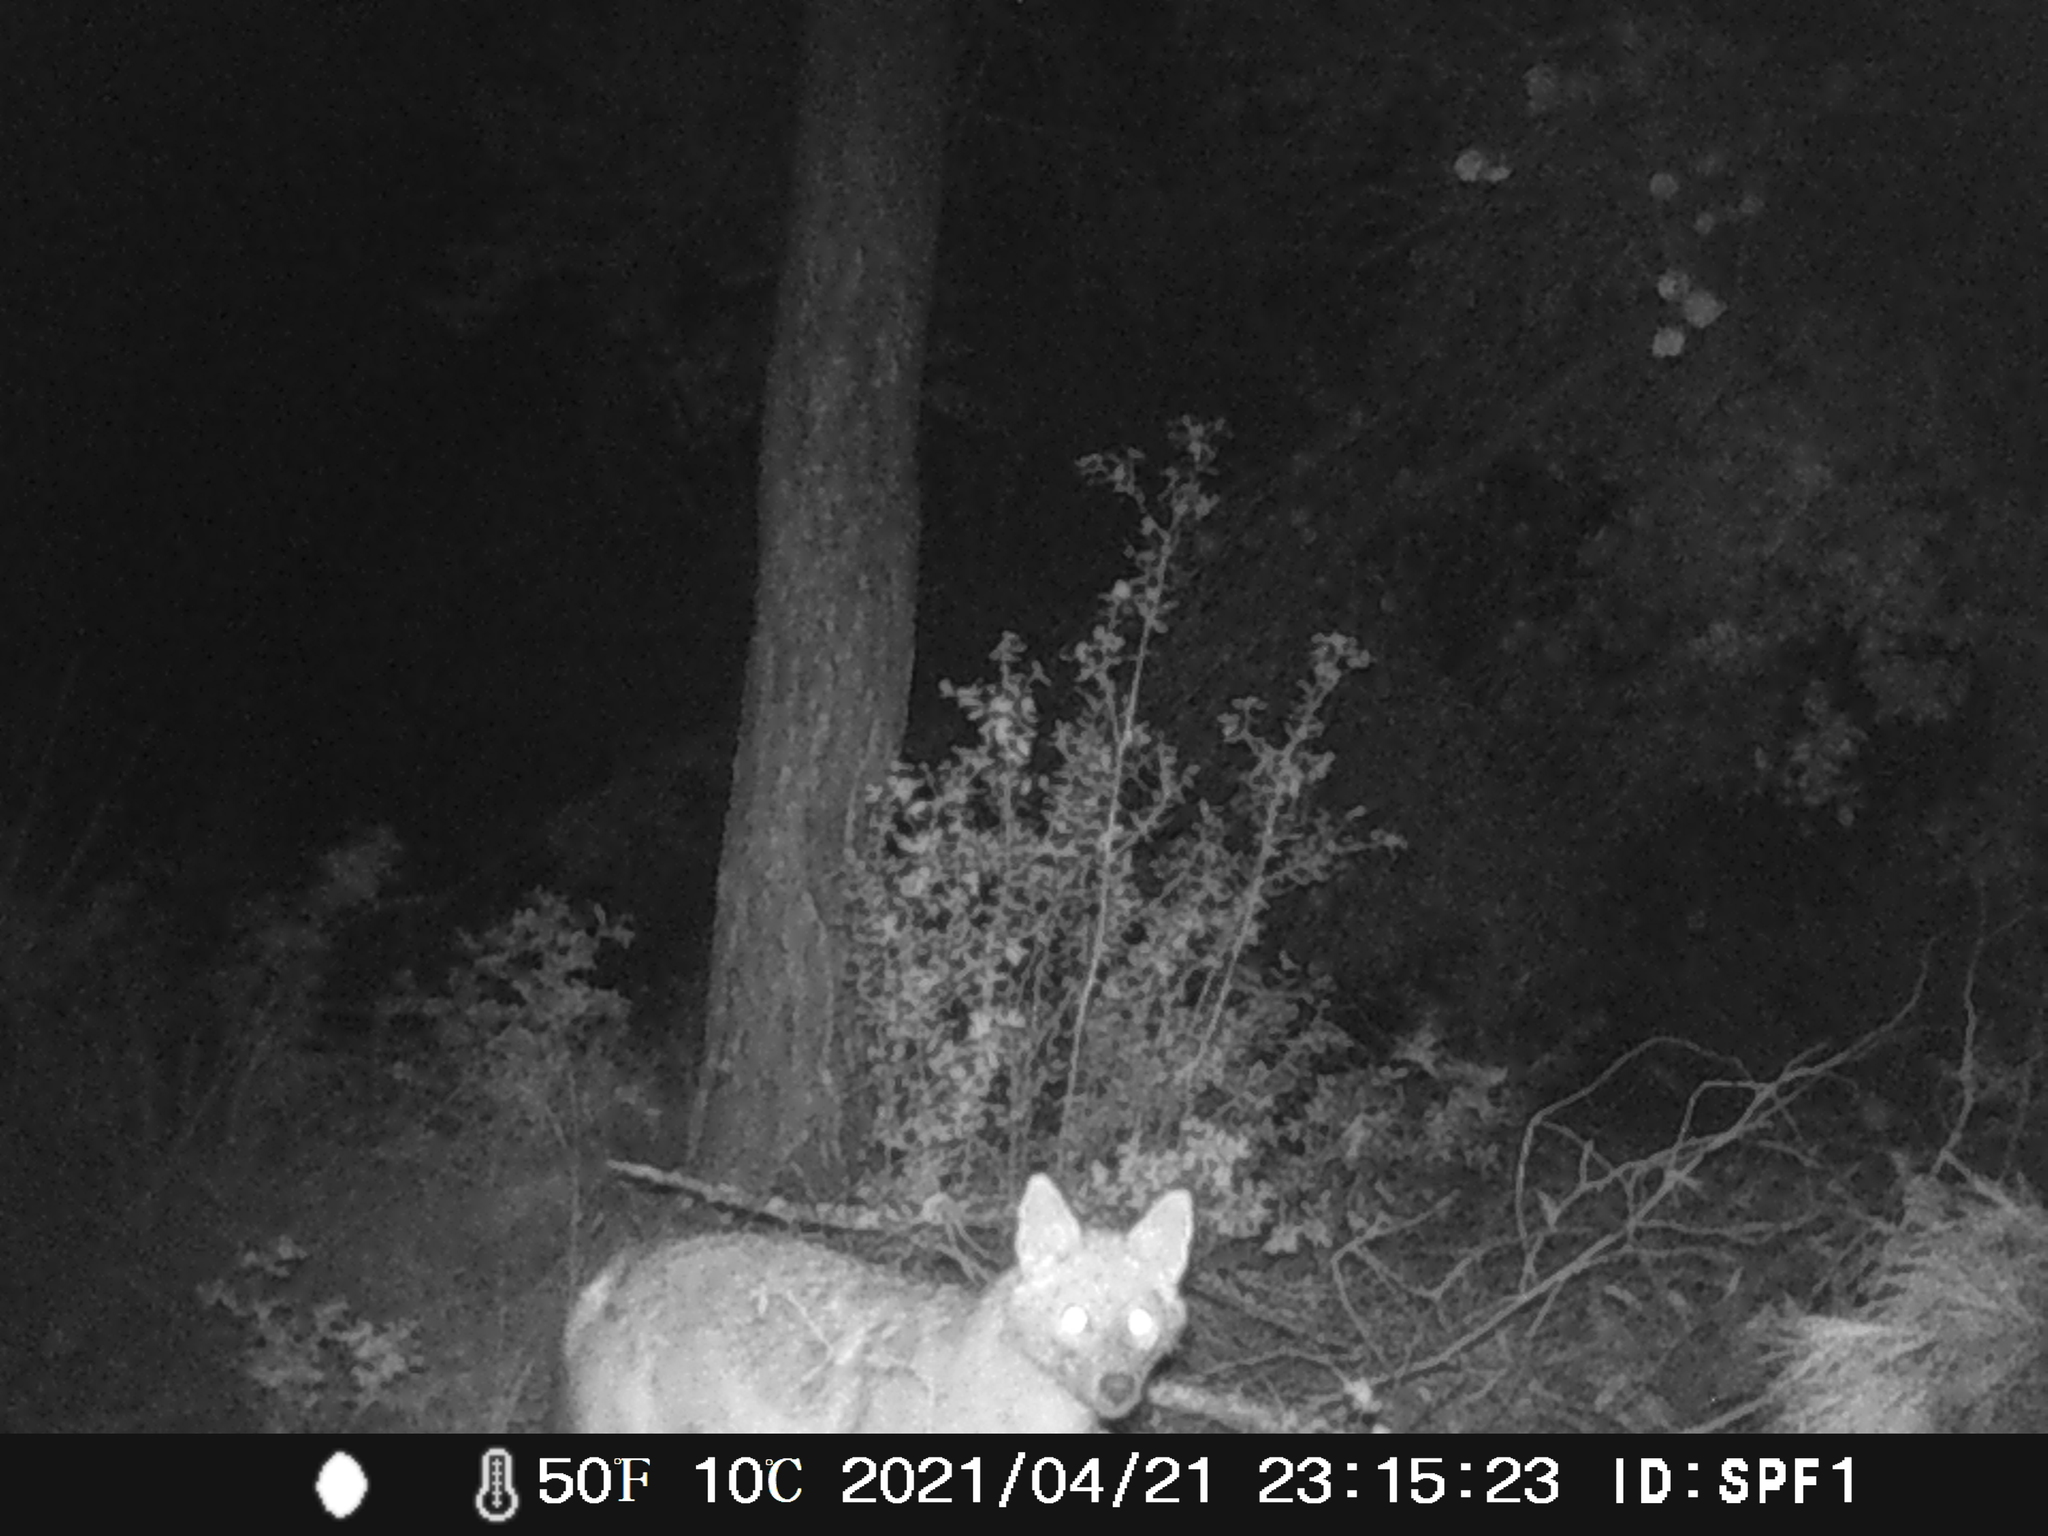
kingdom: Animalia
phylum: Chordata
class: Mammalia
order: Carnivora
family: Canidae
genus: Canis
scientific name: Canis aureus
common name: Golden jackal
